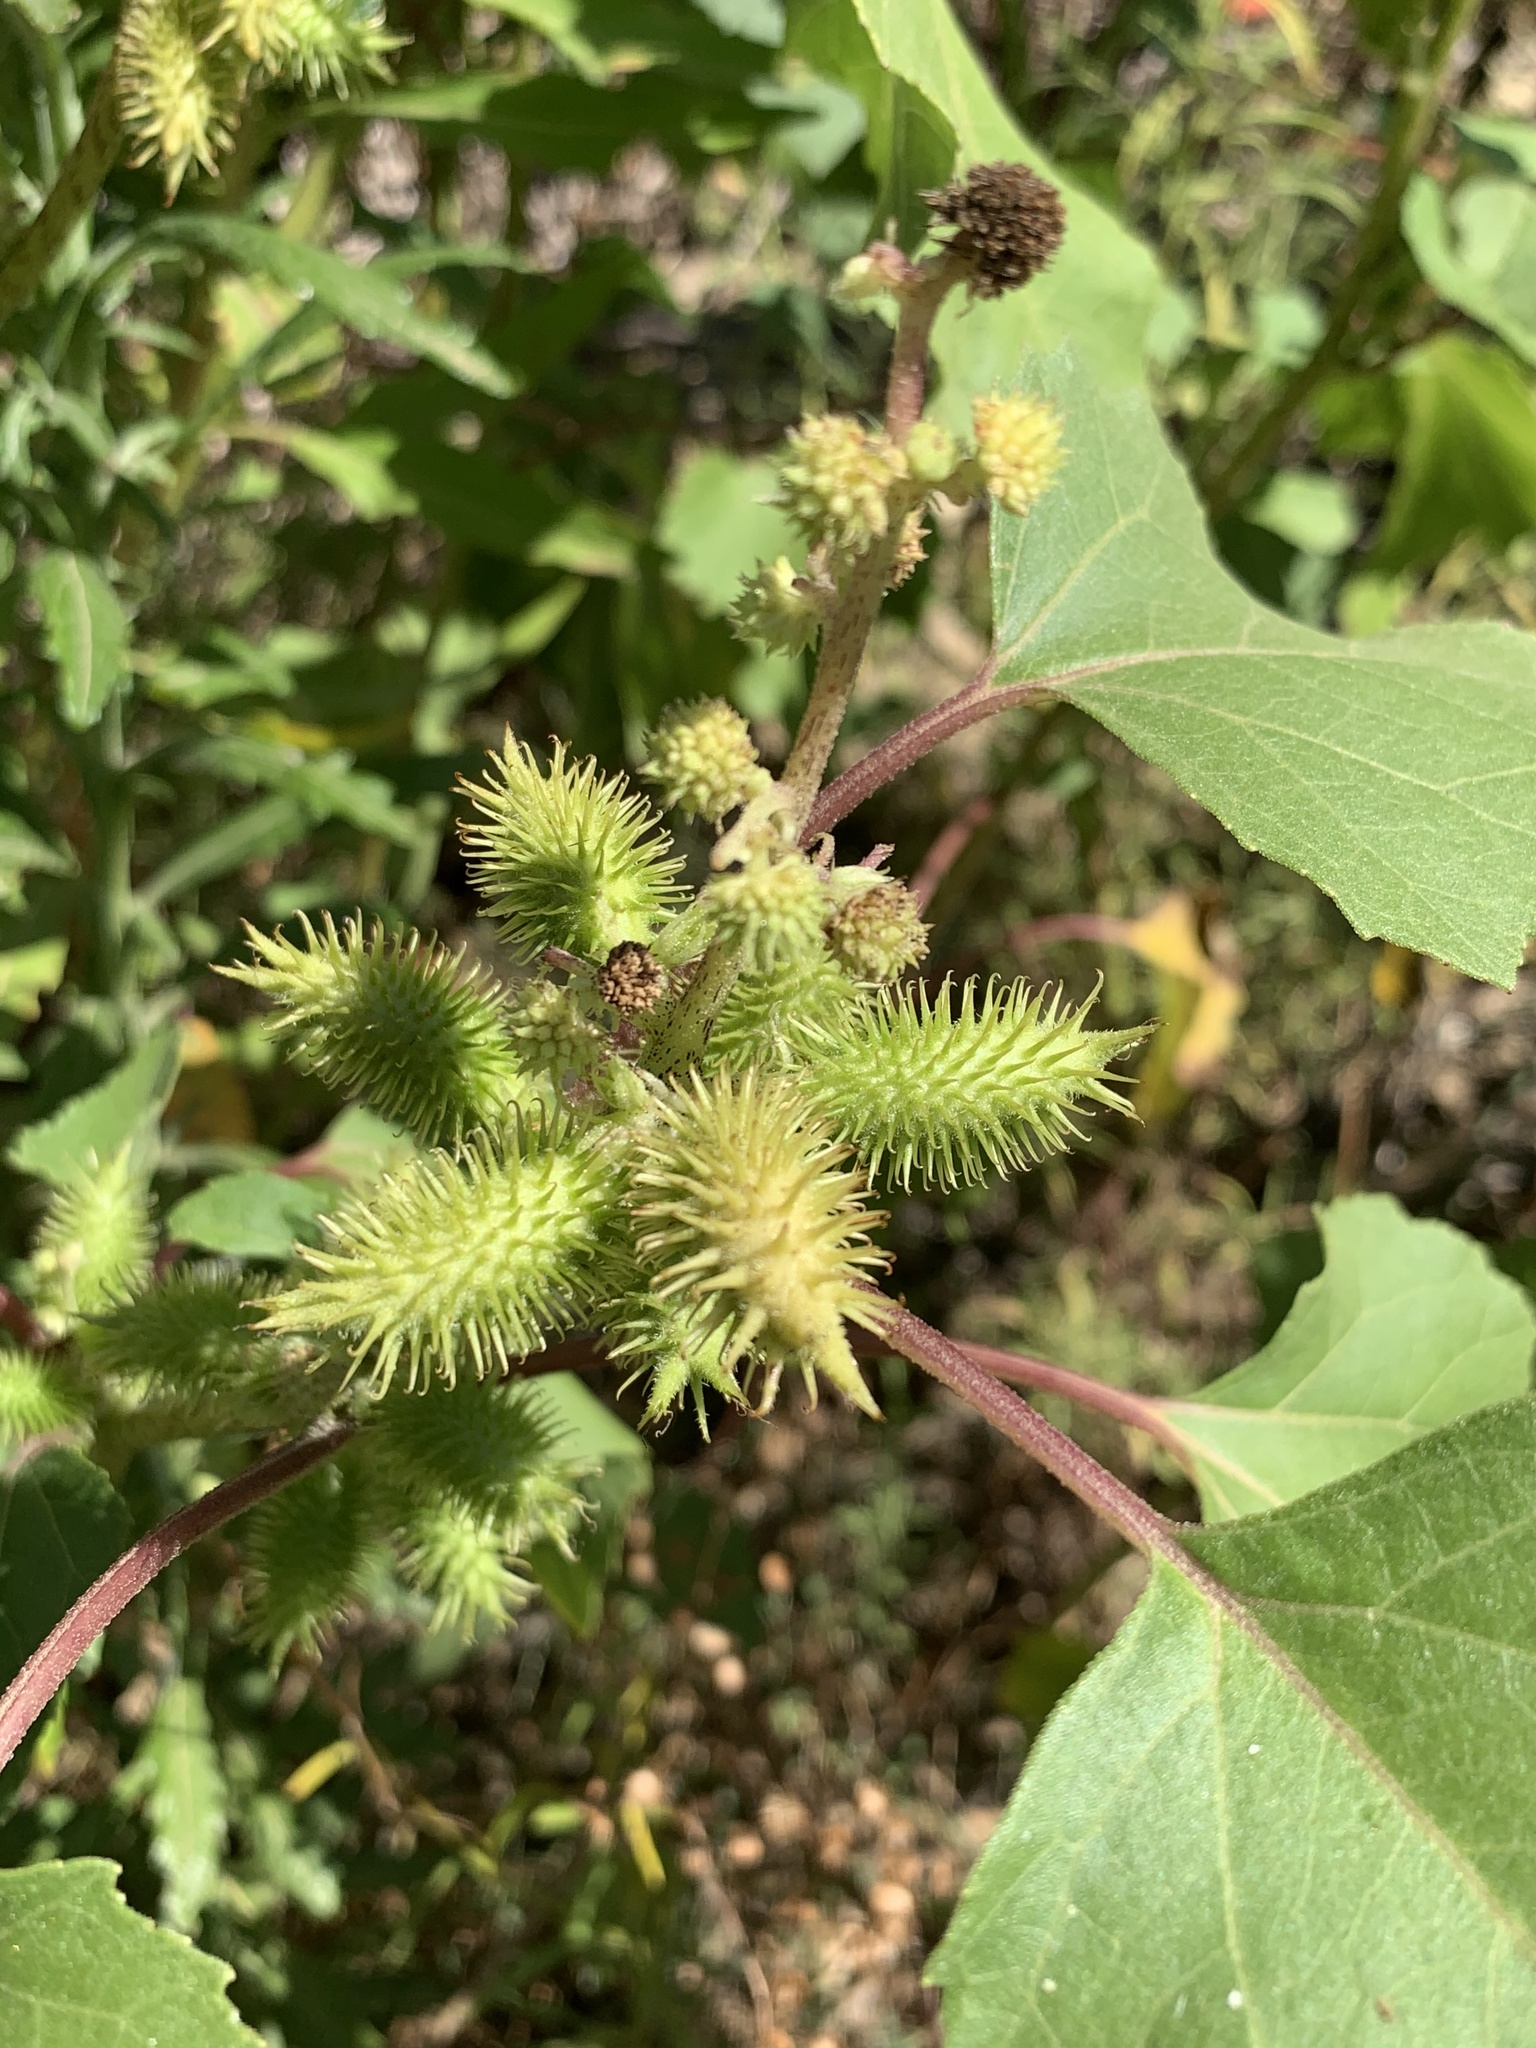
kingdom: Plantae
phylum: Tracheophyta
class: Magnoliopsida
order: Asterales
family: Asteraceae
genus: Xanthium
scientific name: Xanthium strumarium
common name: Rough cocklebur
